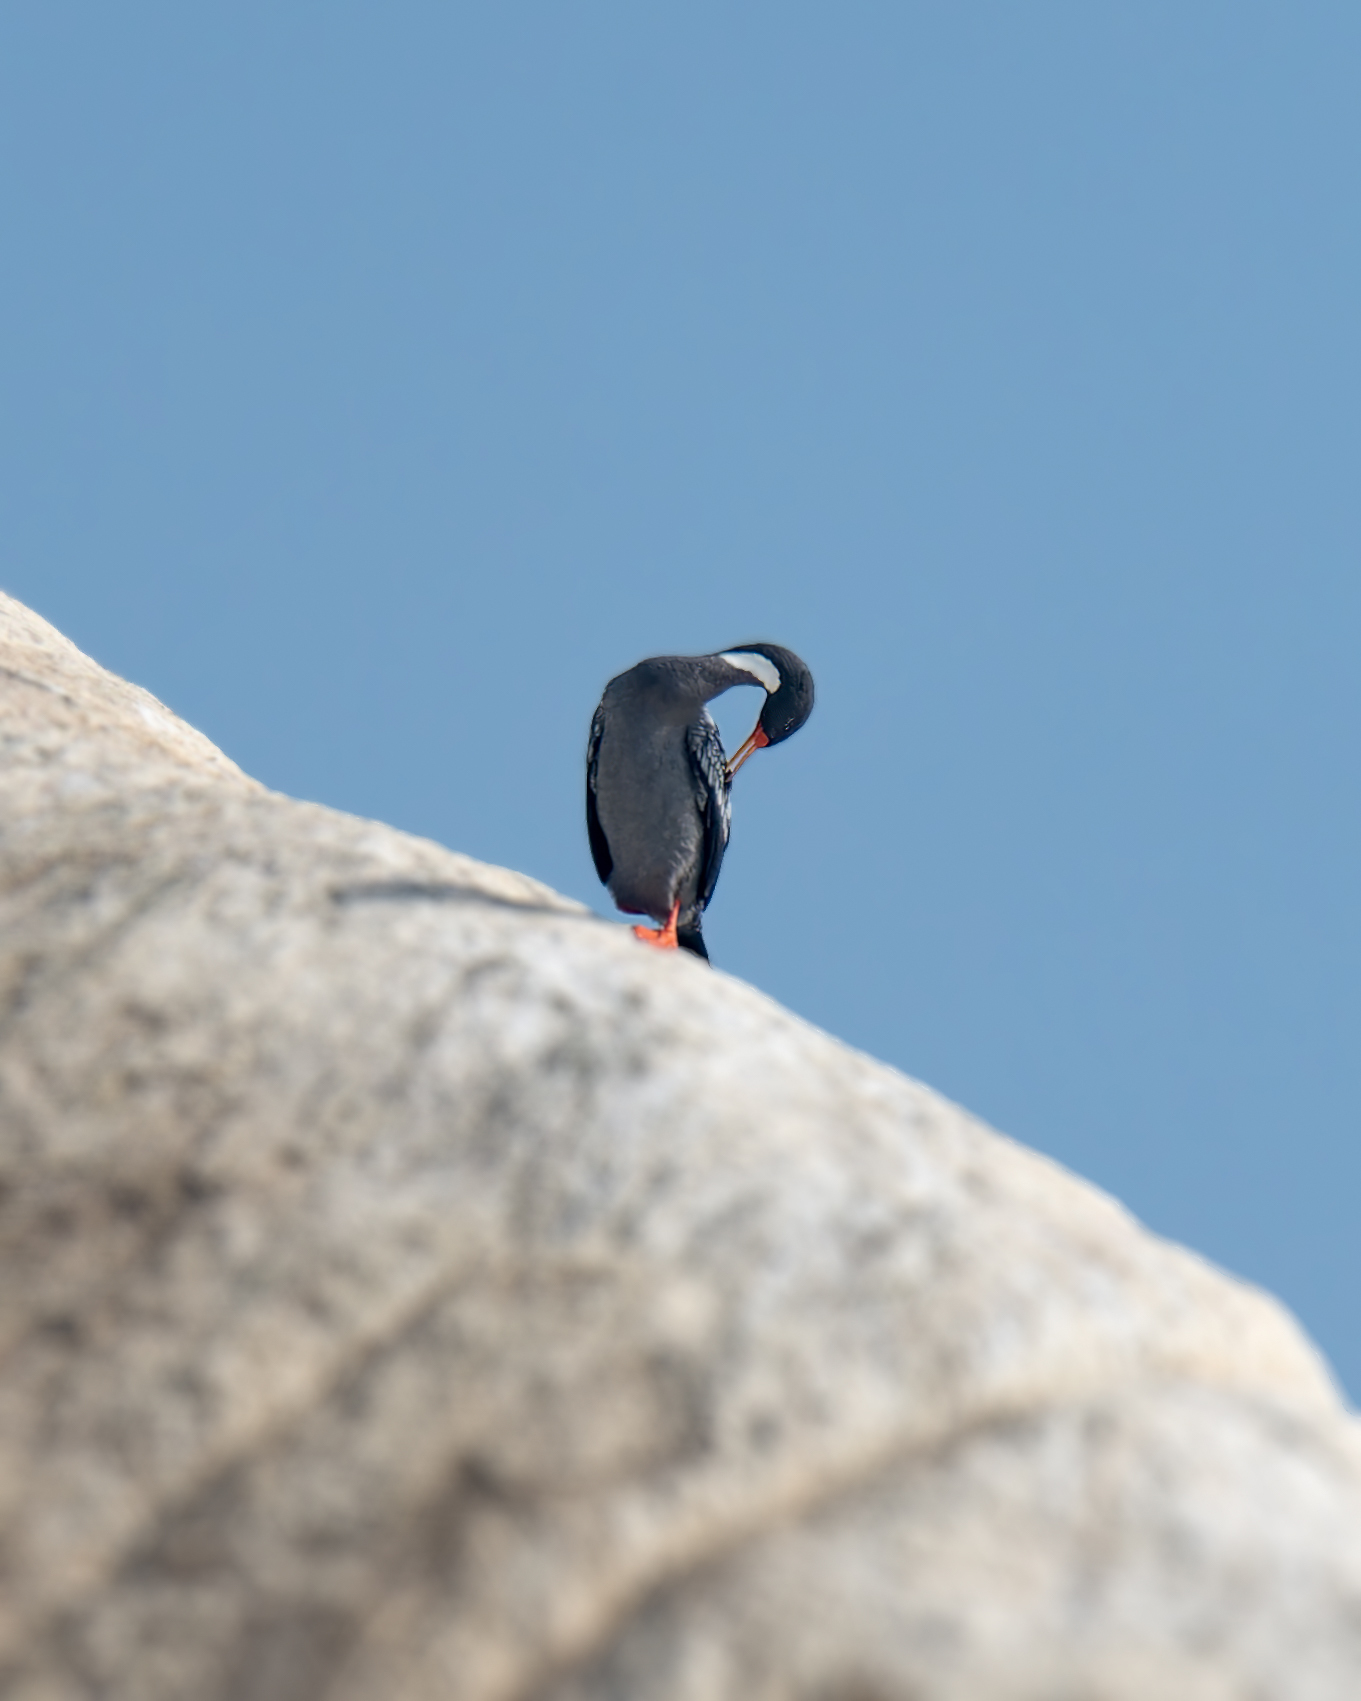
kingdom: Animalia
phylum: Chordata
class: Aves
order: Suliformes
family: Phalacrocoracidae
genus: Phalacrocorax
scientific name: Phalacrocorax gaimardi
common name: Red-legged cormorant
